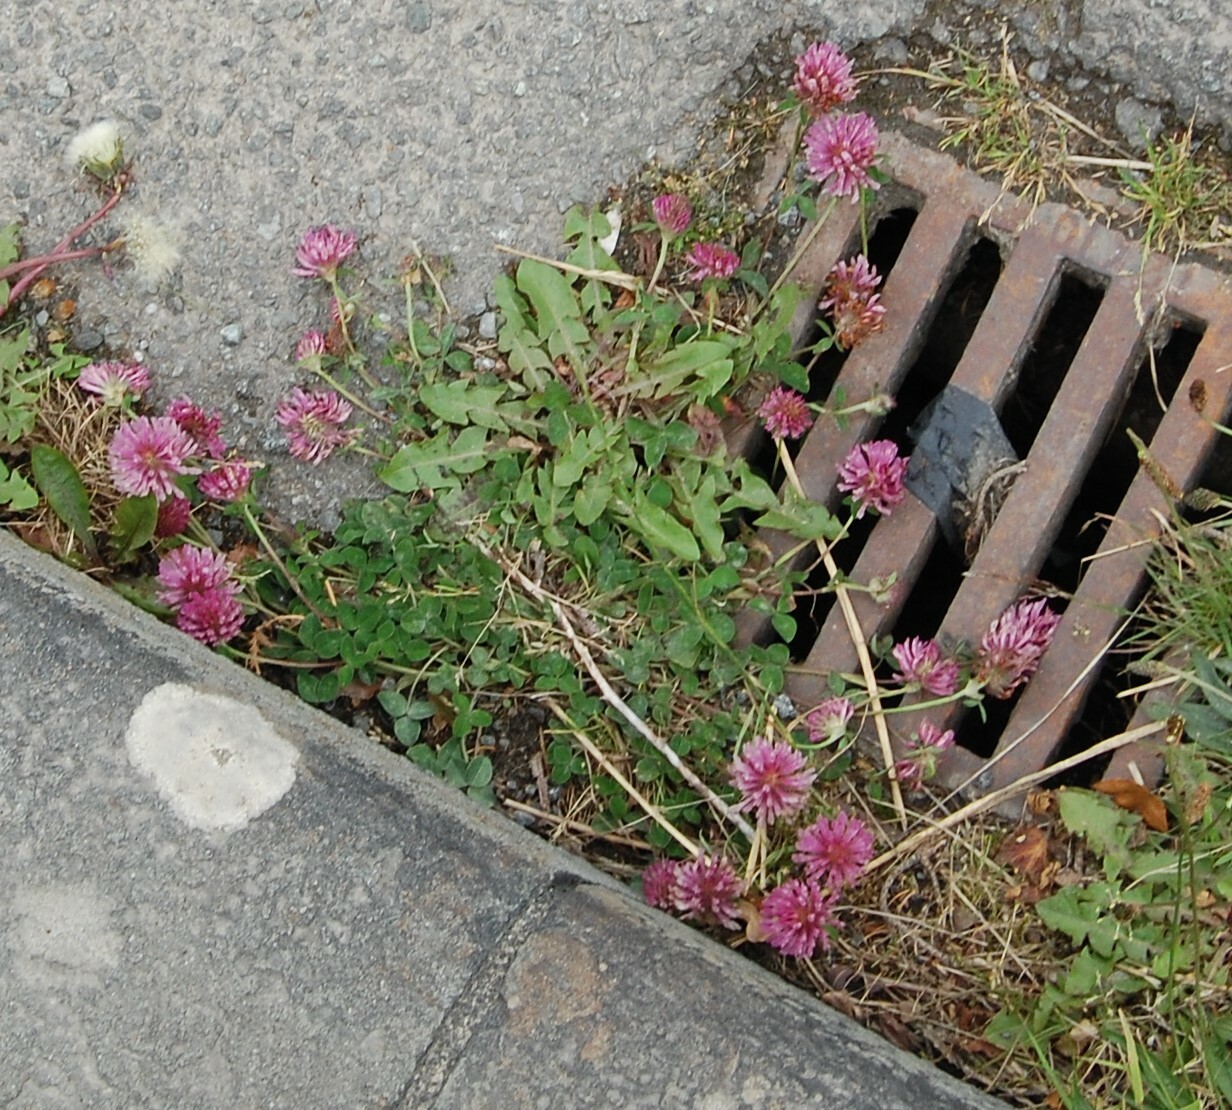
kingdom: Plantae
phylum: Tracheophyta
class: Magnoliopsida
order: Fabales
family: Fabaceae
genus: Trifolium
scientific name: Trifolium pratense
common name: Red clover
